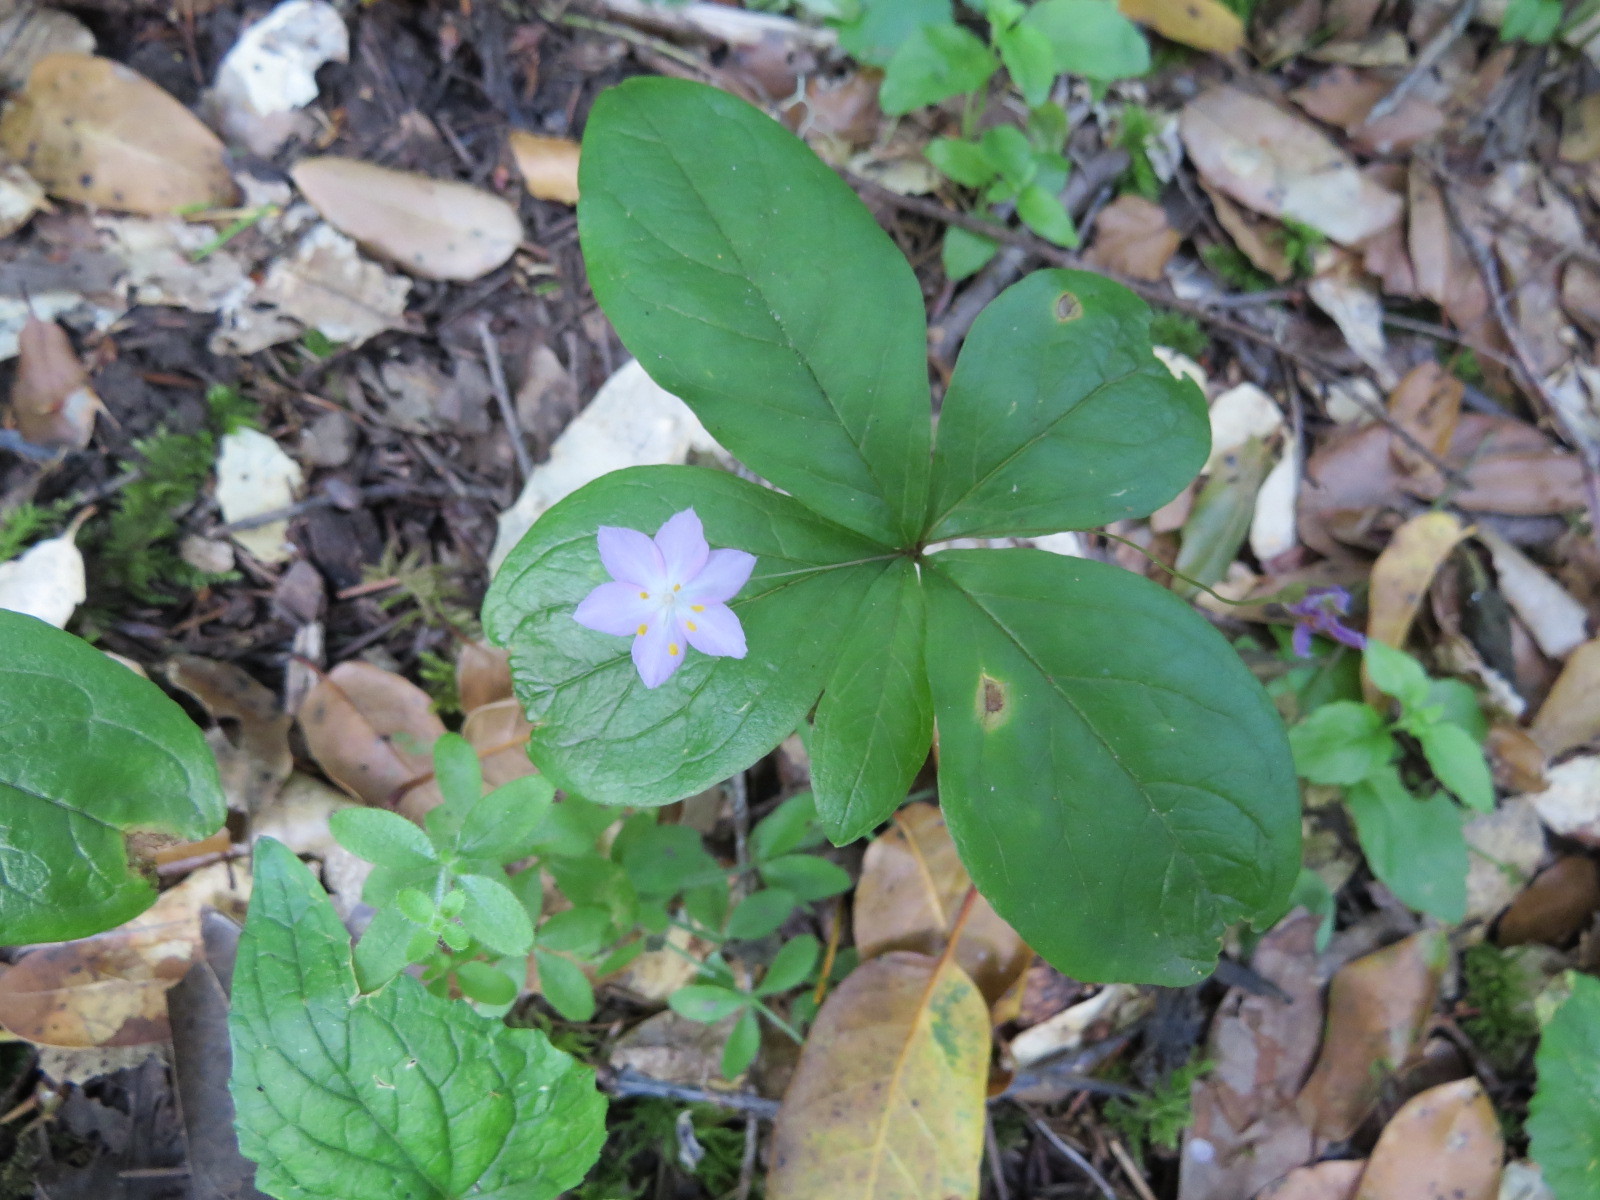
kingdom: Plantae
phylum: Tracheophyta
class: Magnoliopsida
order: Ericales
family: Primulaceae
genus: Lysimachia
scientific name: Lysimachia latifolia
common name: Pacific starflower
